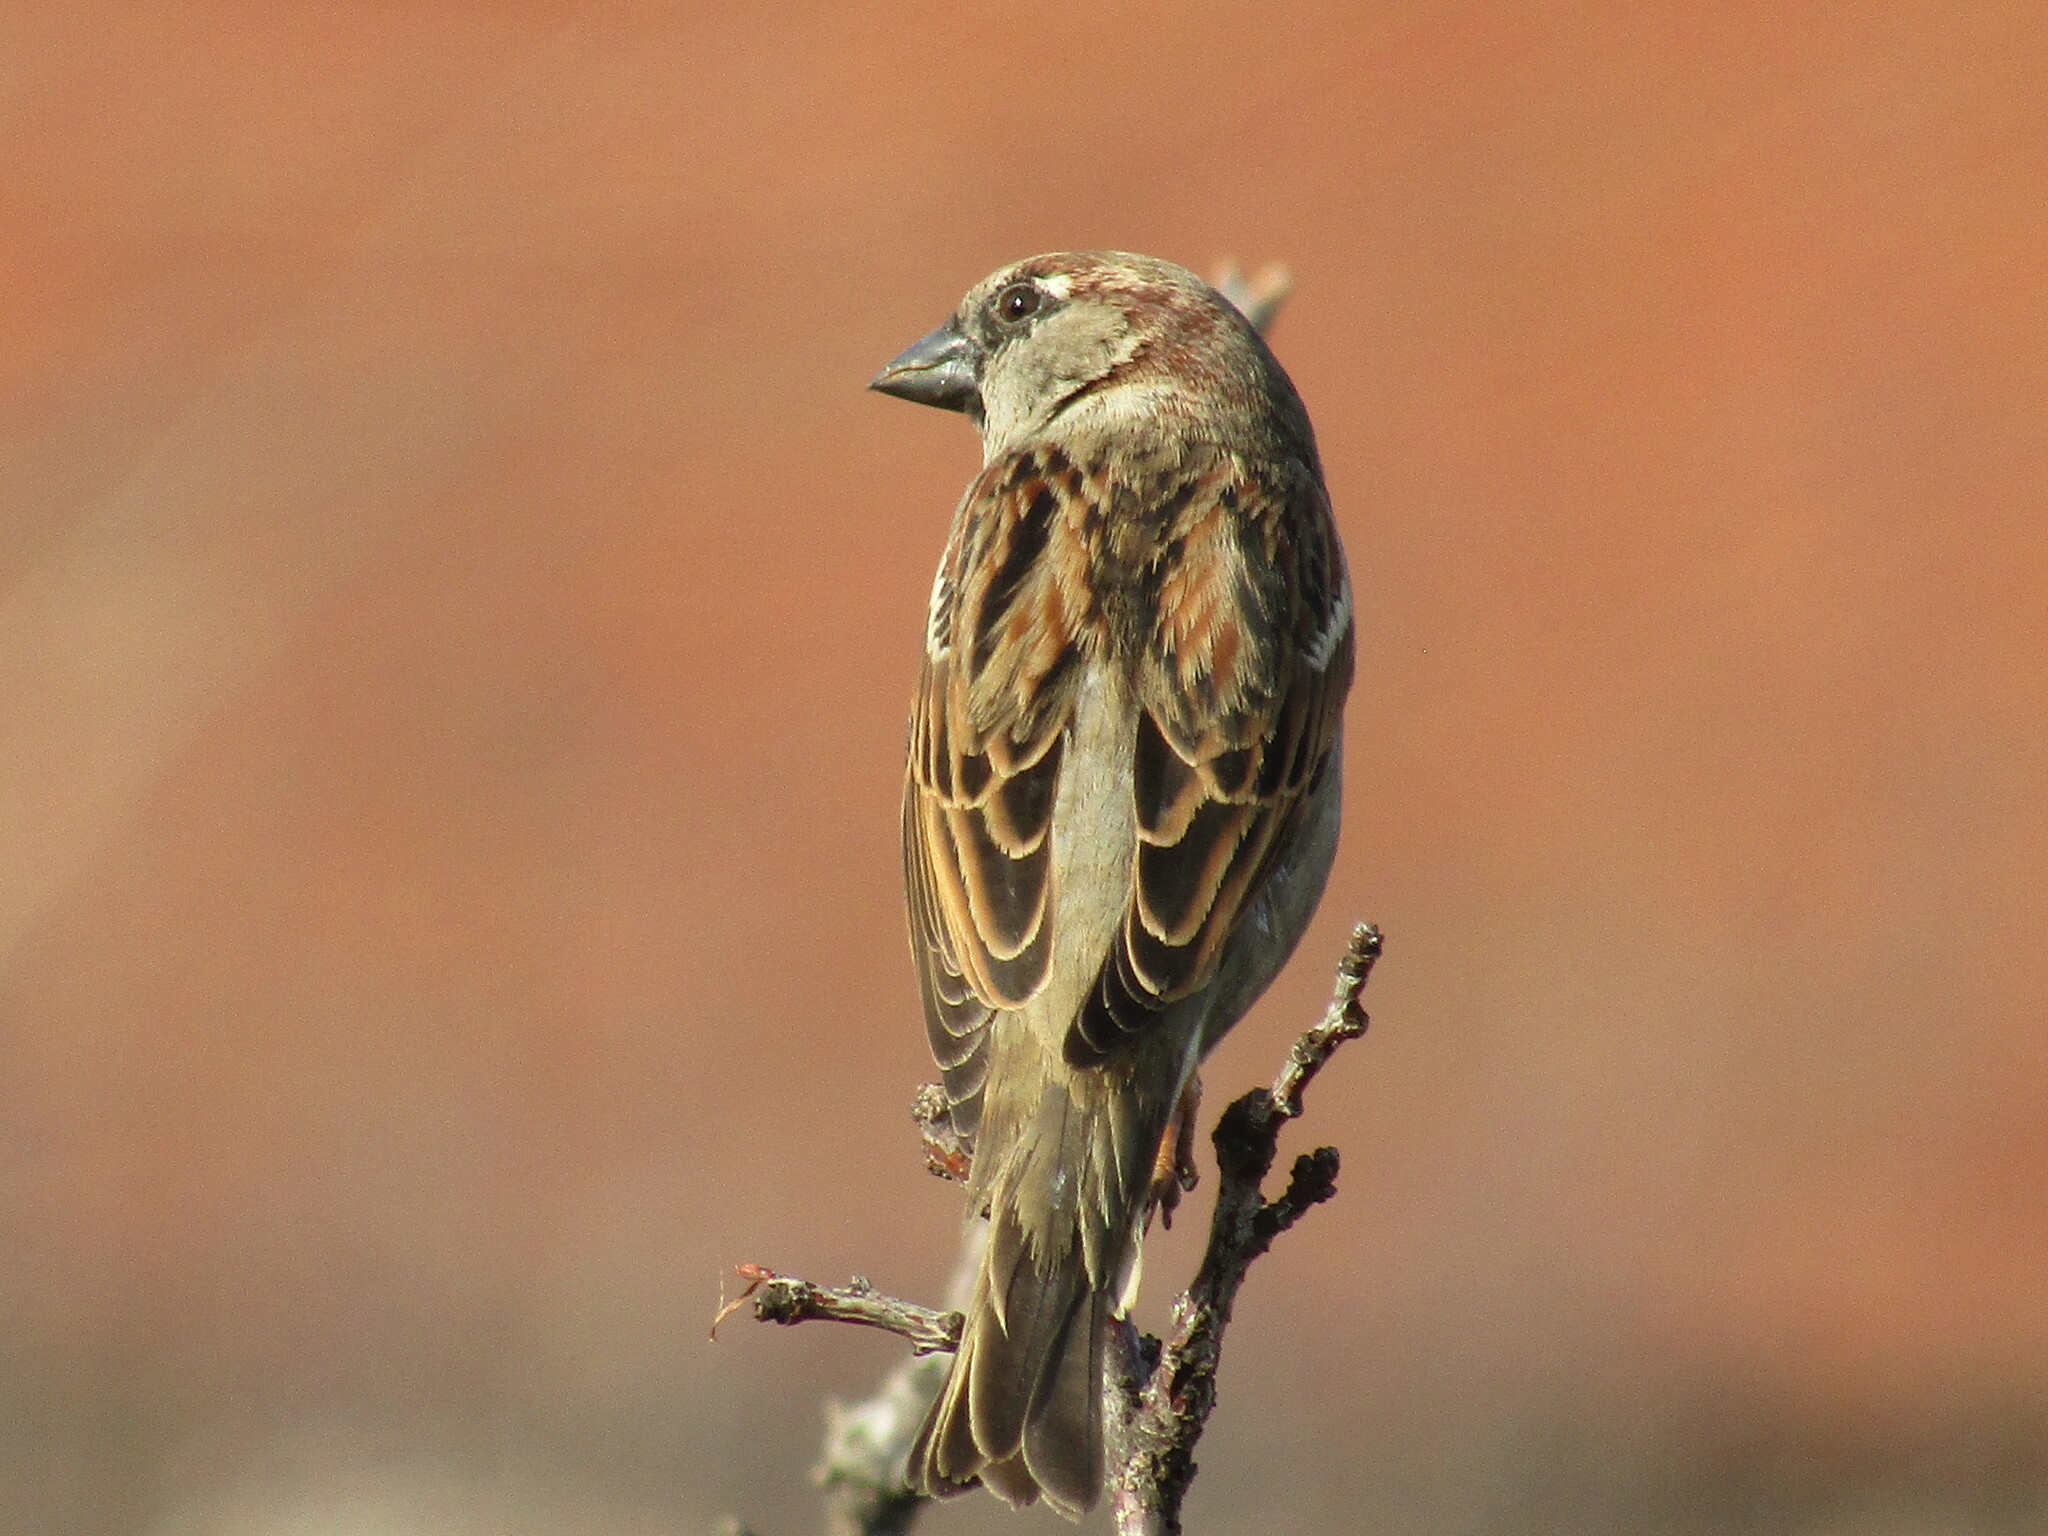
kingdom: Animalia
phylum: Chordata
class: Aves
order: Passeriformes
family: Passeridae
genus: Passer
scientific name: Passer domesticus
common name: House sparrow
